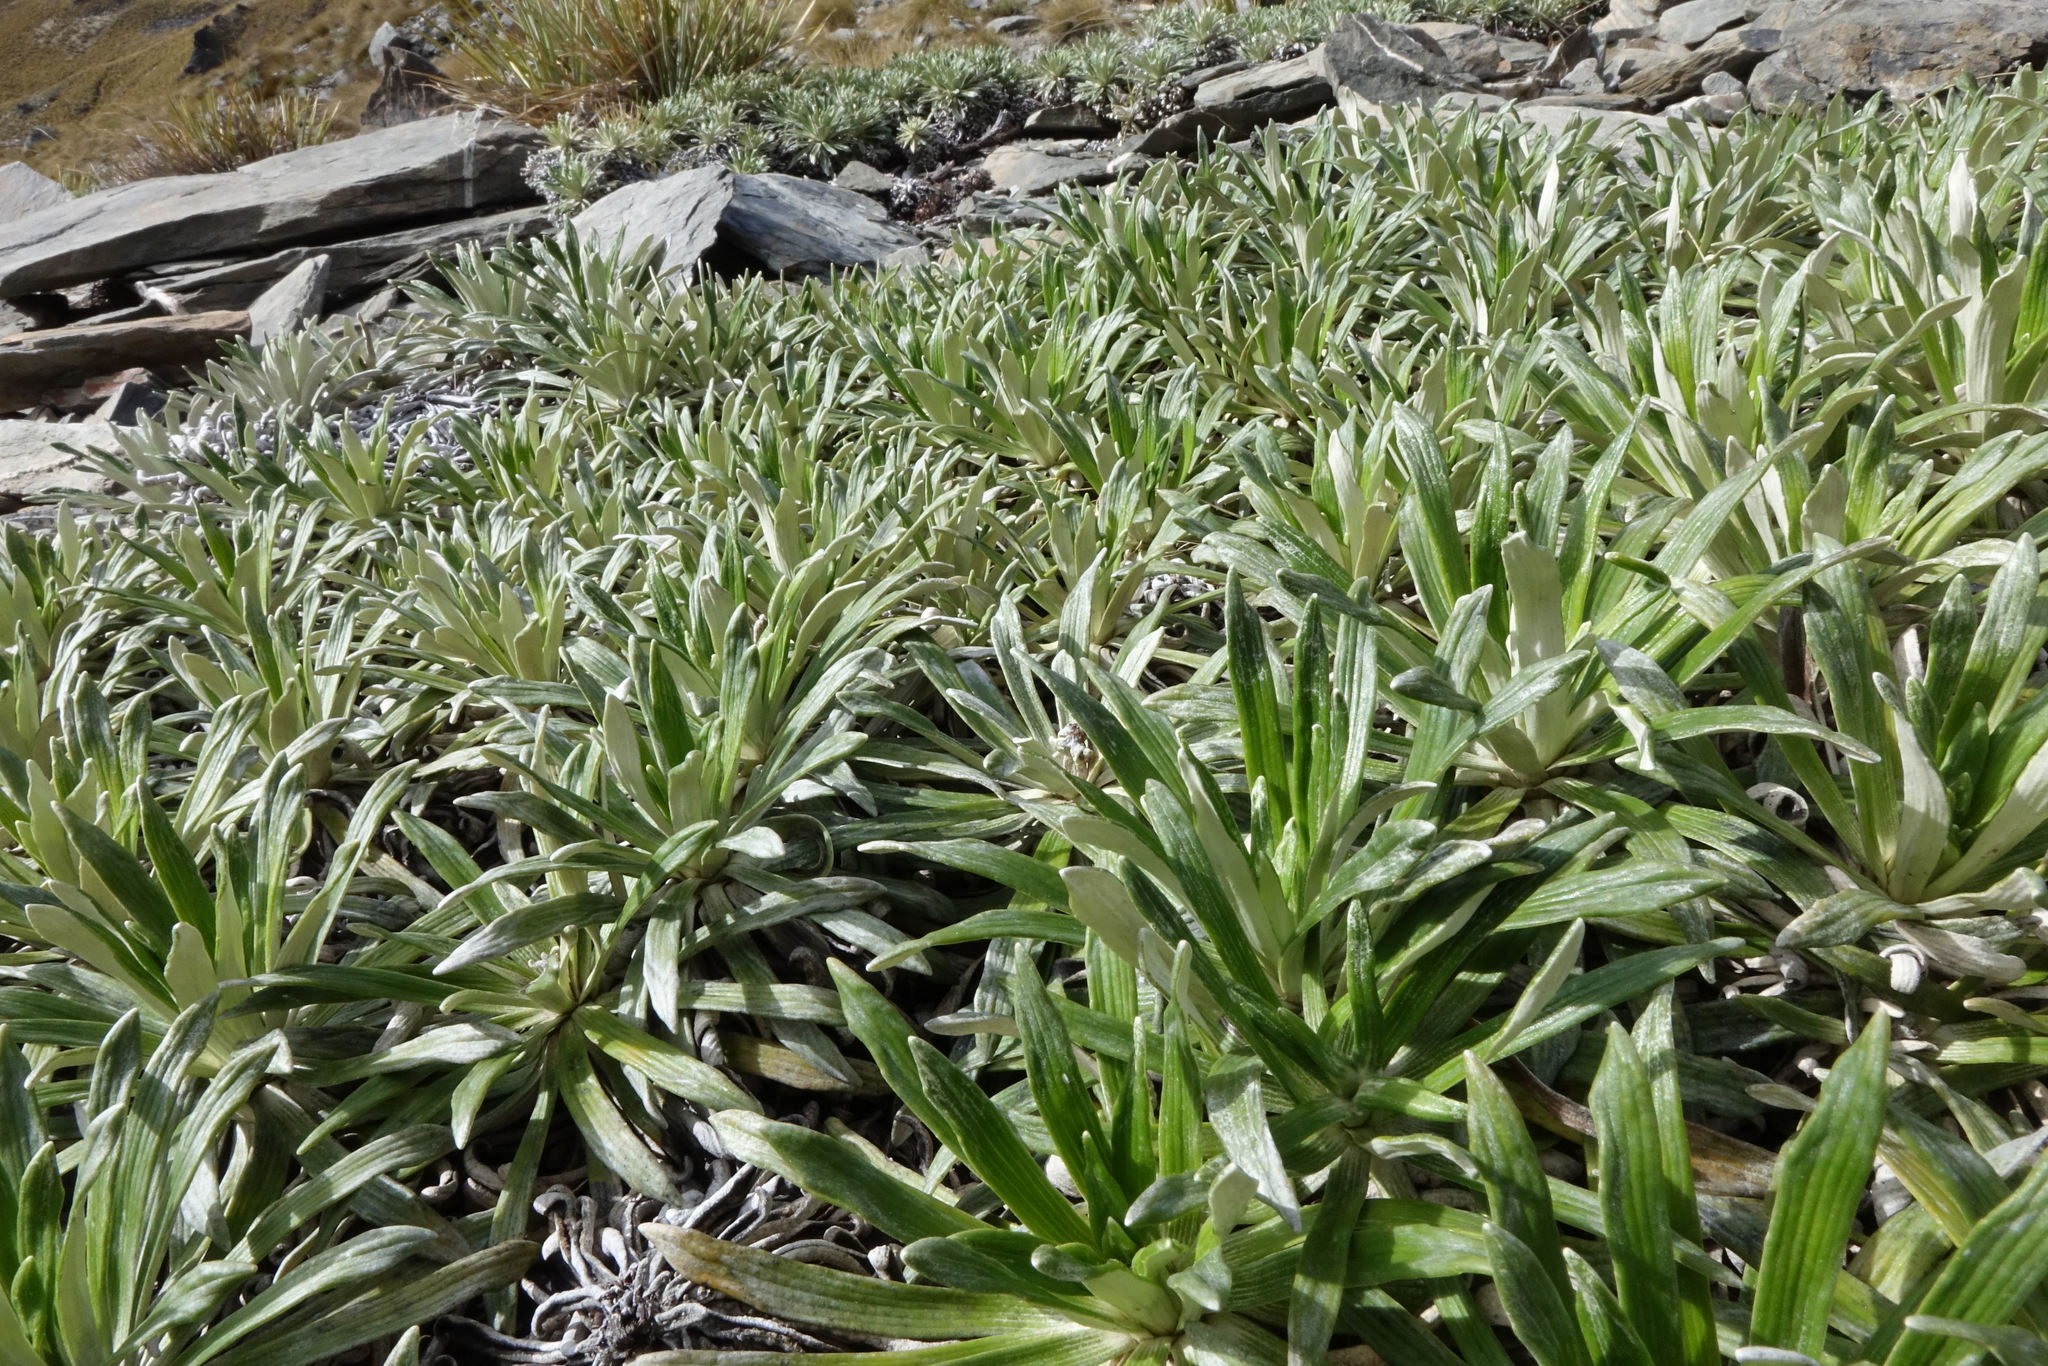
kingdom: Plantae
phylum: Tracheophyta
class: Magnoliopsida
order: Asterales
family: Asteraceae
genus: Celmisia
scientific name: Celmisia viscosa
